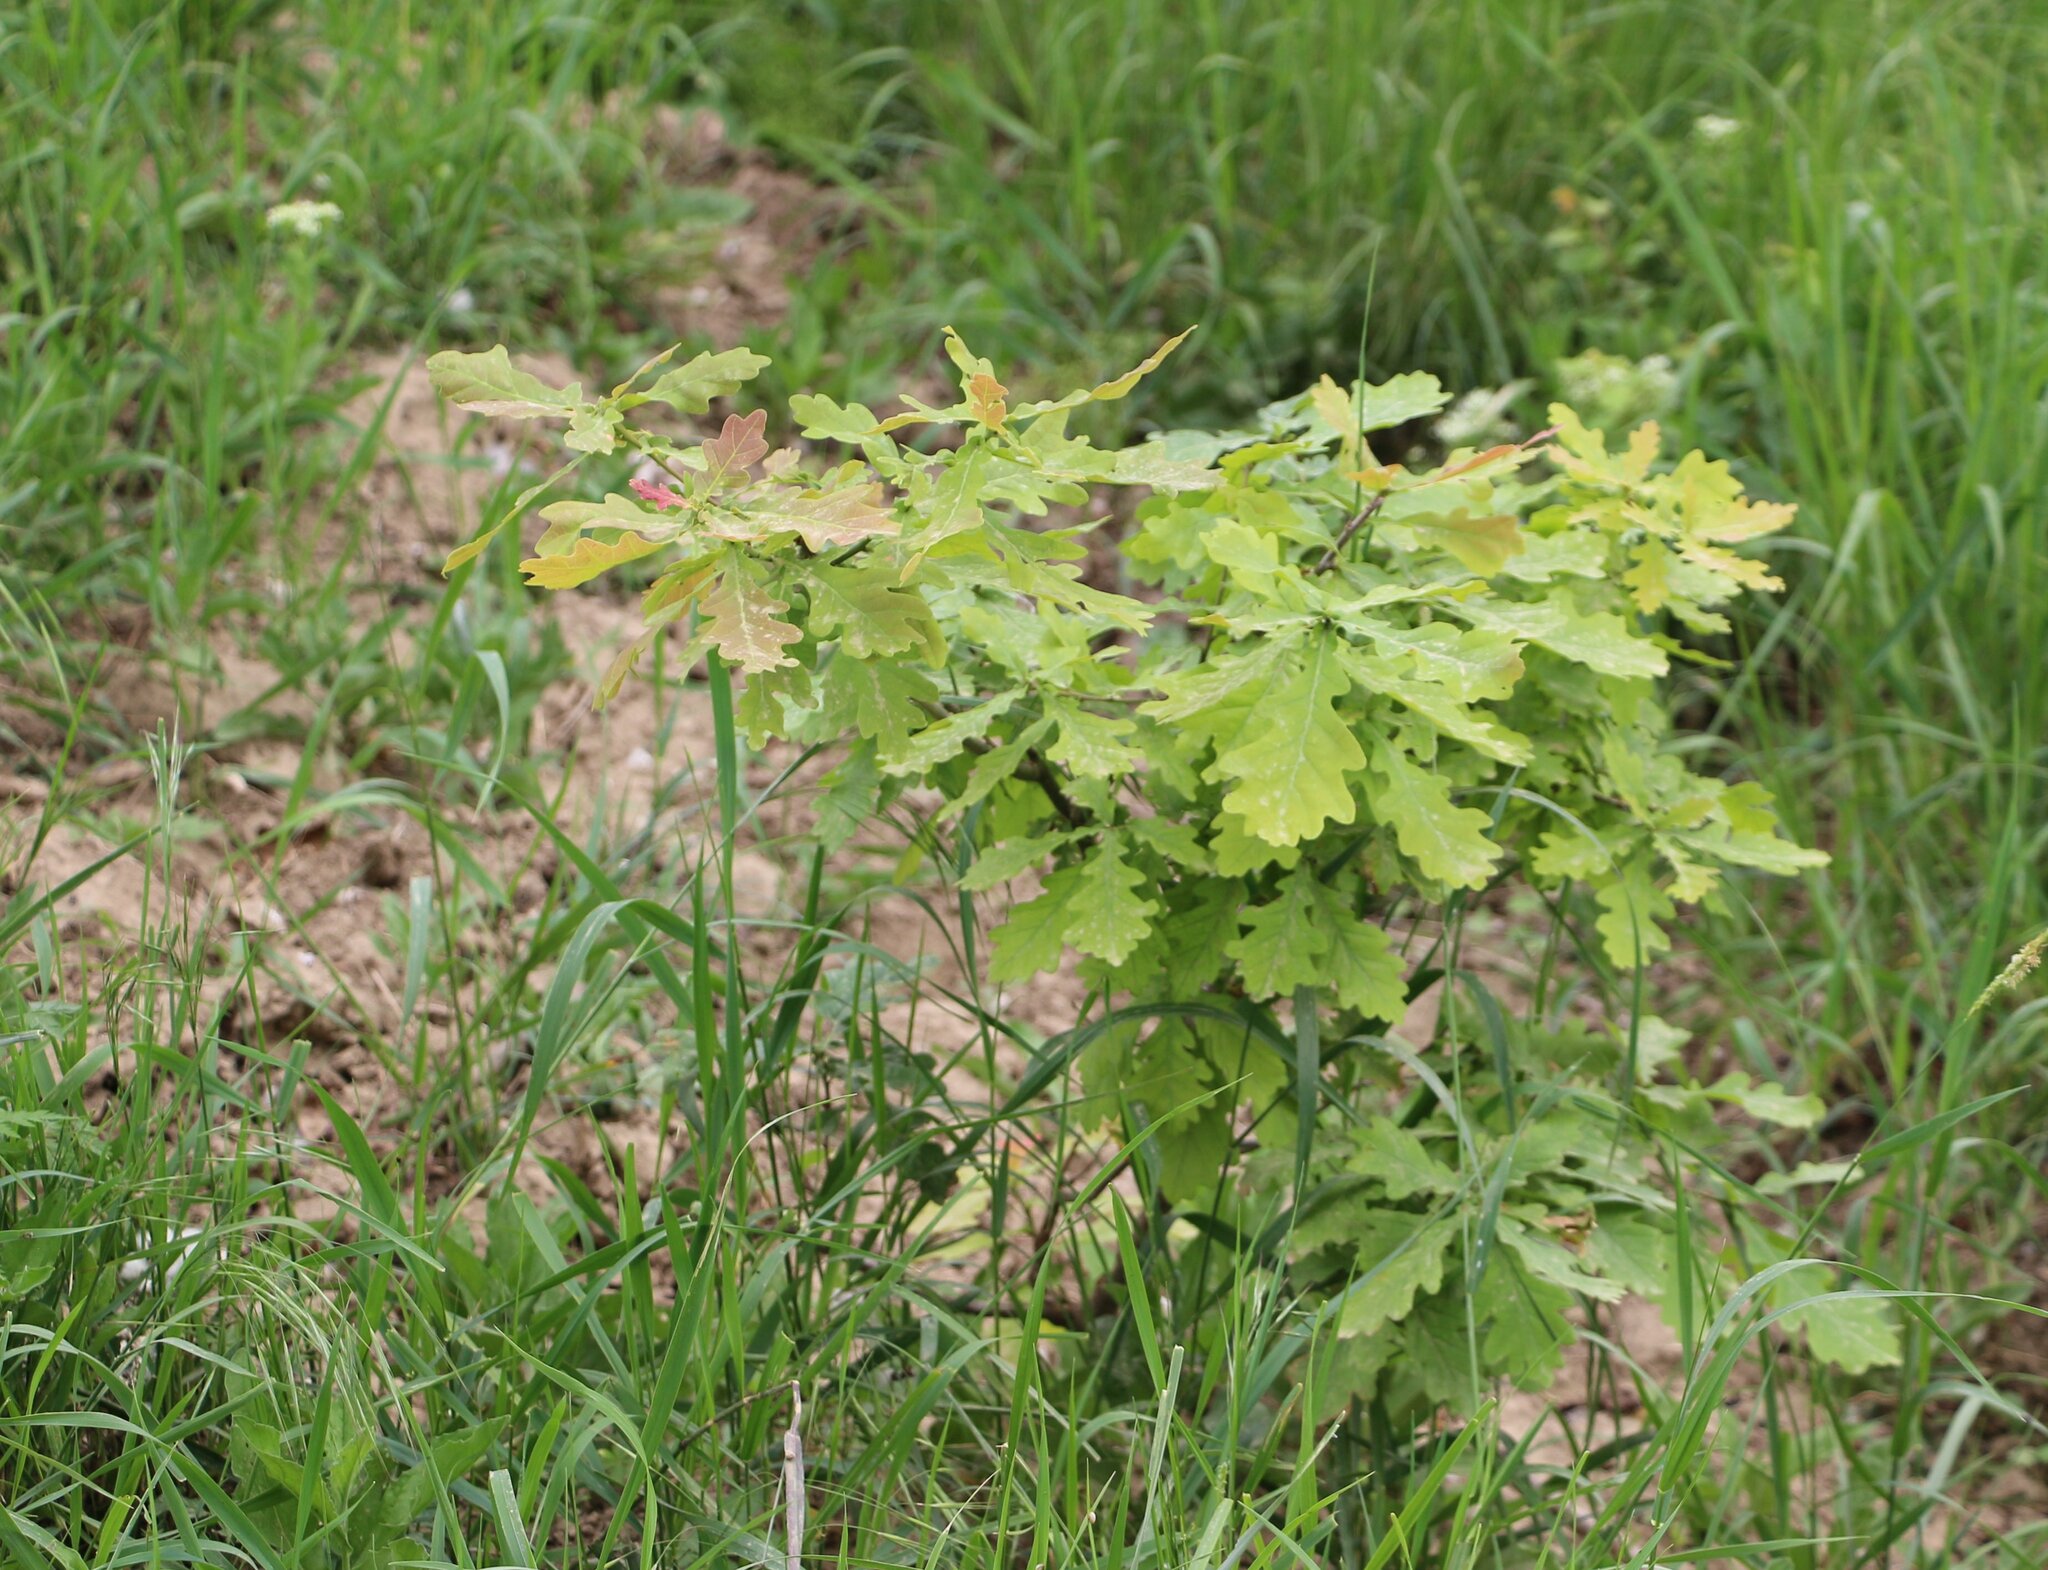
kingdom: Plantae
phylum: Tracheophyta
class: Magnoliopsida
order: Fagales
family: Fagaceae
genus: Quercus
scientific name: Quercus robur
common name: Pedunculate oak
